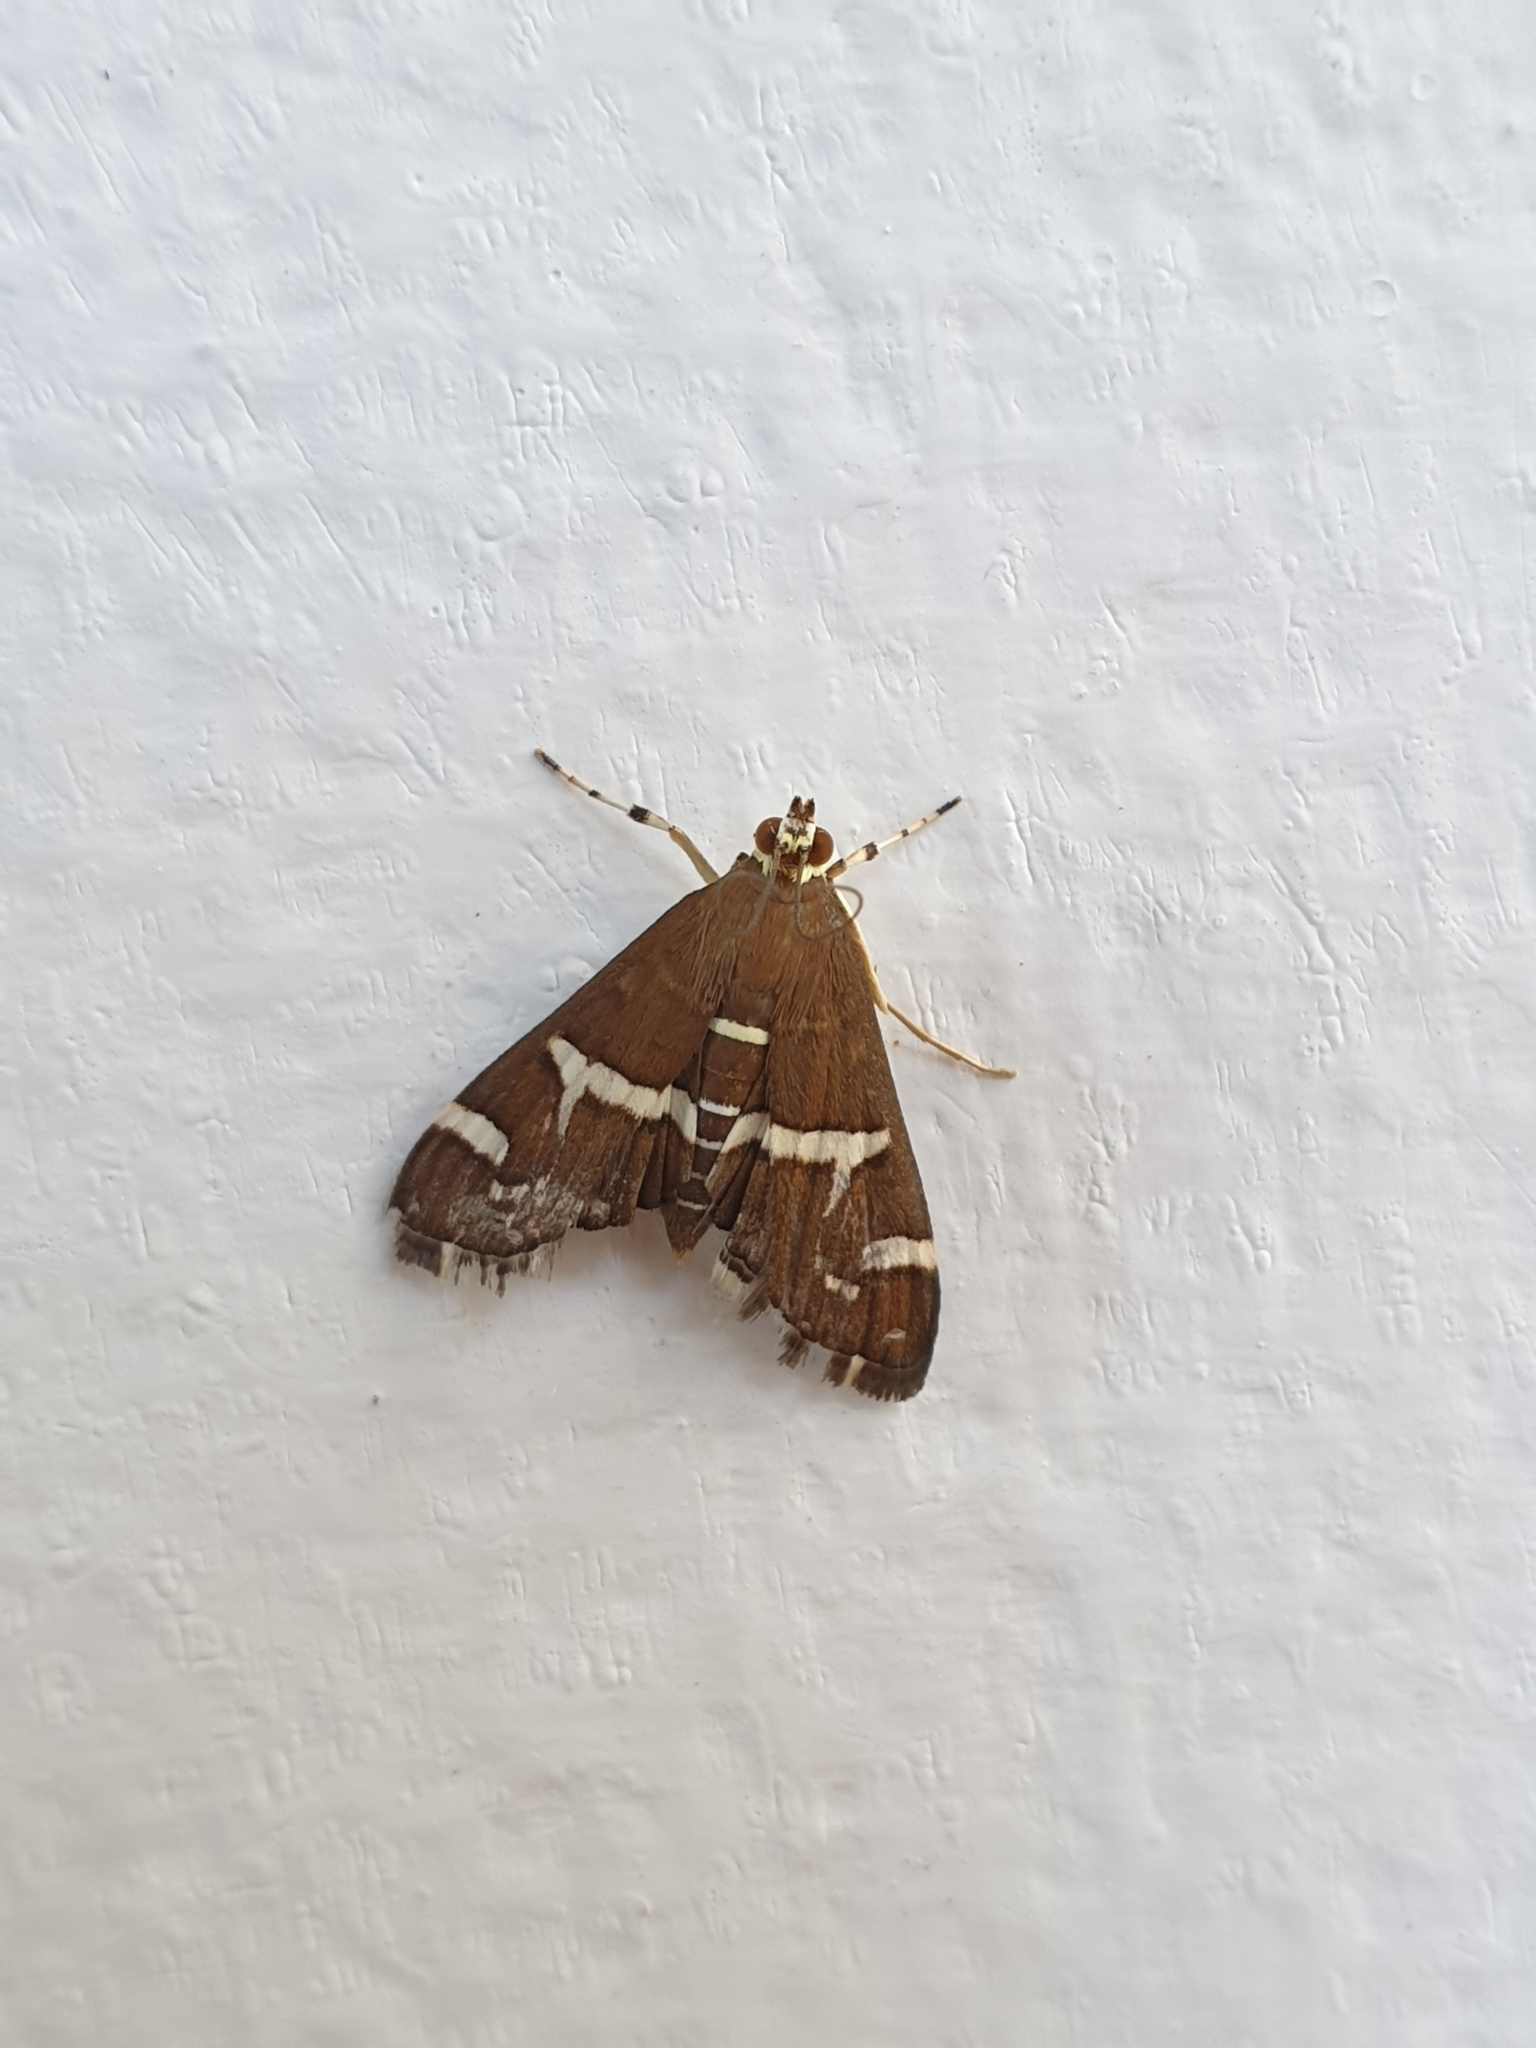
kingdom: Animalia
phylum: Arthropoda
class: Insecta
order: Lepidoptera
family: Crambidae
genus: Spoladea
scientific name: Spoladea recurvalis
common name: Beet webworm moth
